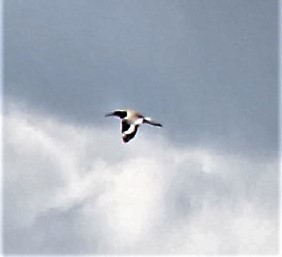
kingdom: Animalia
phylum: Chordata
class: Aves
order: Charadriiformes
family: Scolopacidae
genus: Tringa
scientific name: Tringa semipalmata
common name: Willet
